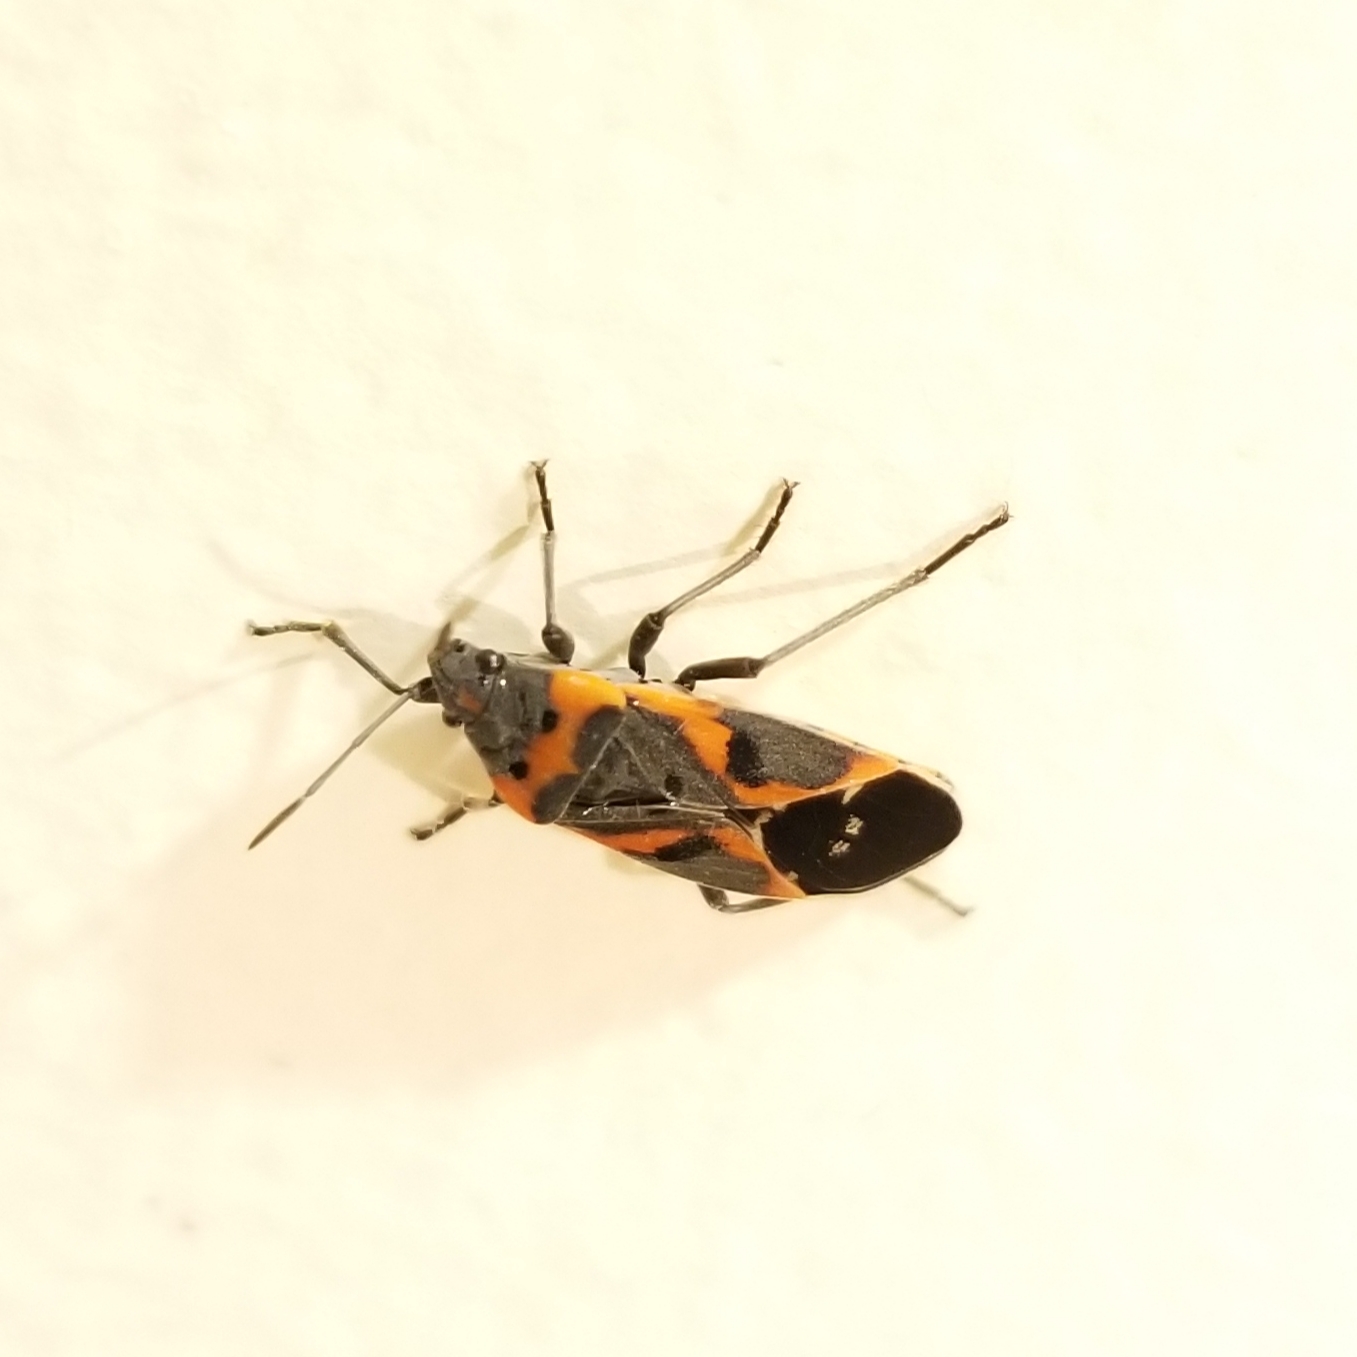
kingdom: Animalia
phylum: Arthropoda
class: Insecta
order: Hemiptera
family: Lygaeidae
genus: Lygaeus
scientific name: Lygaeus kalmii
